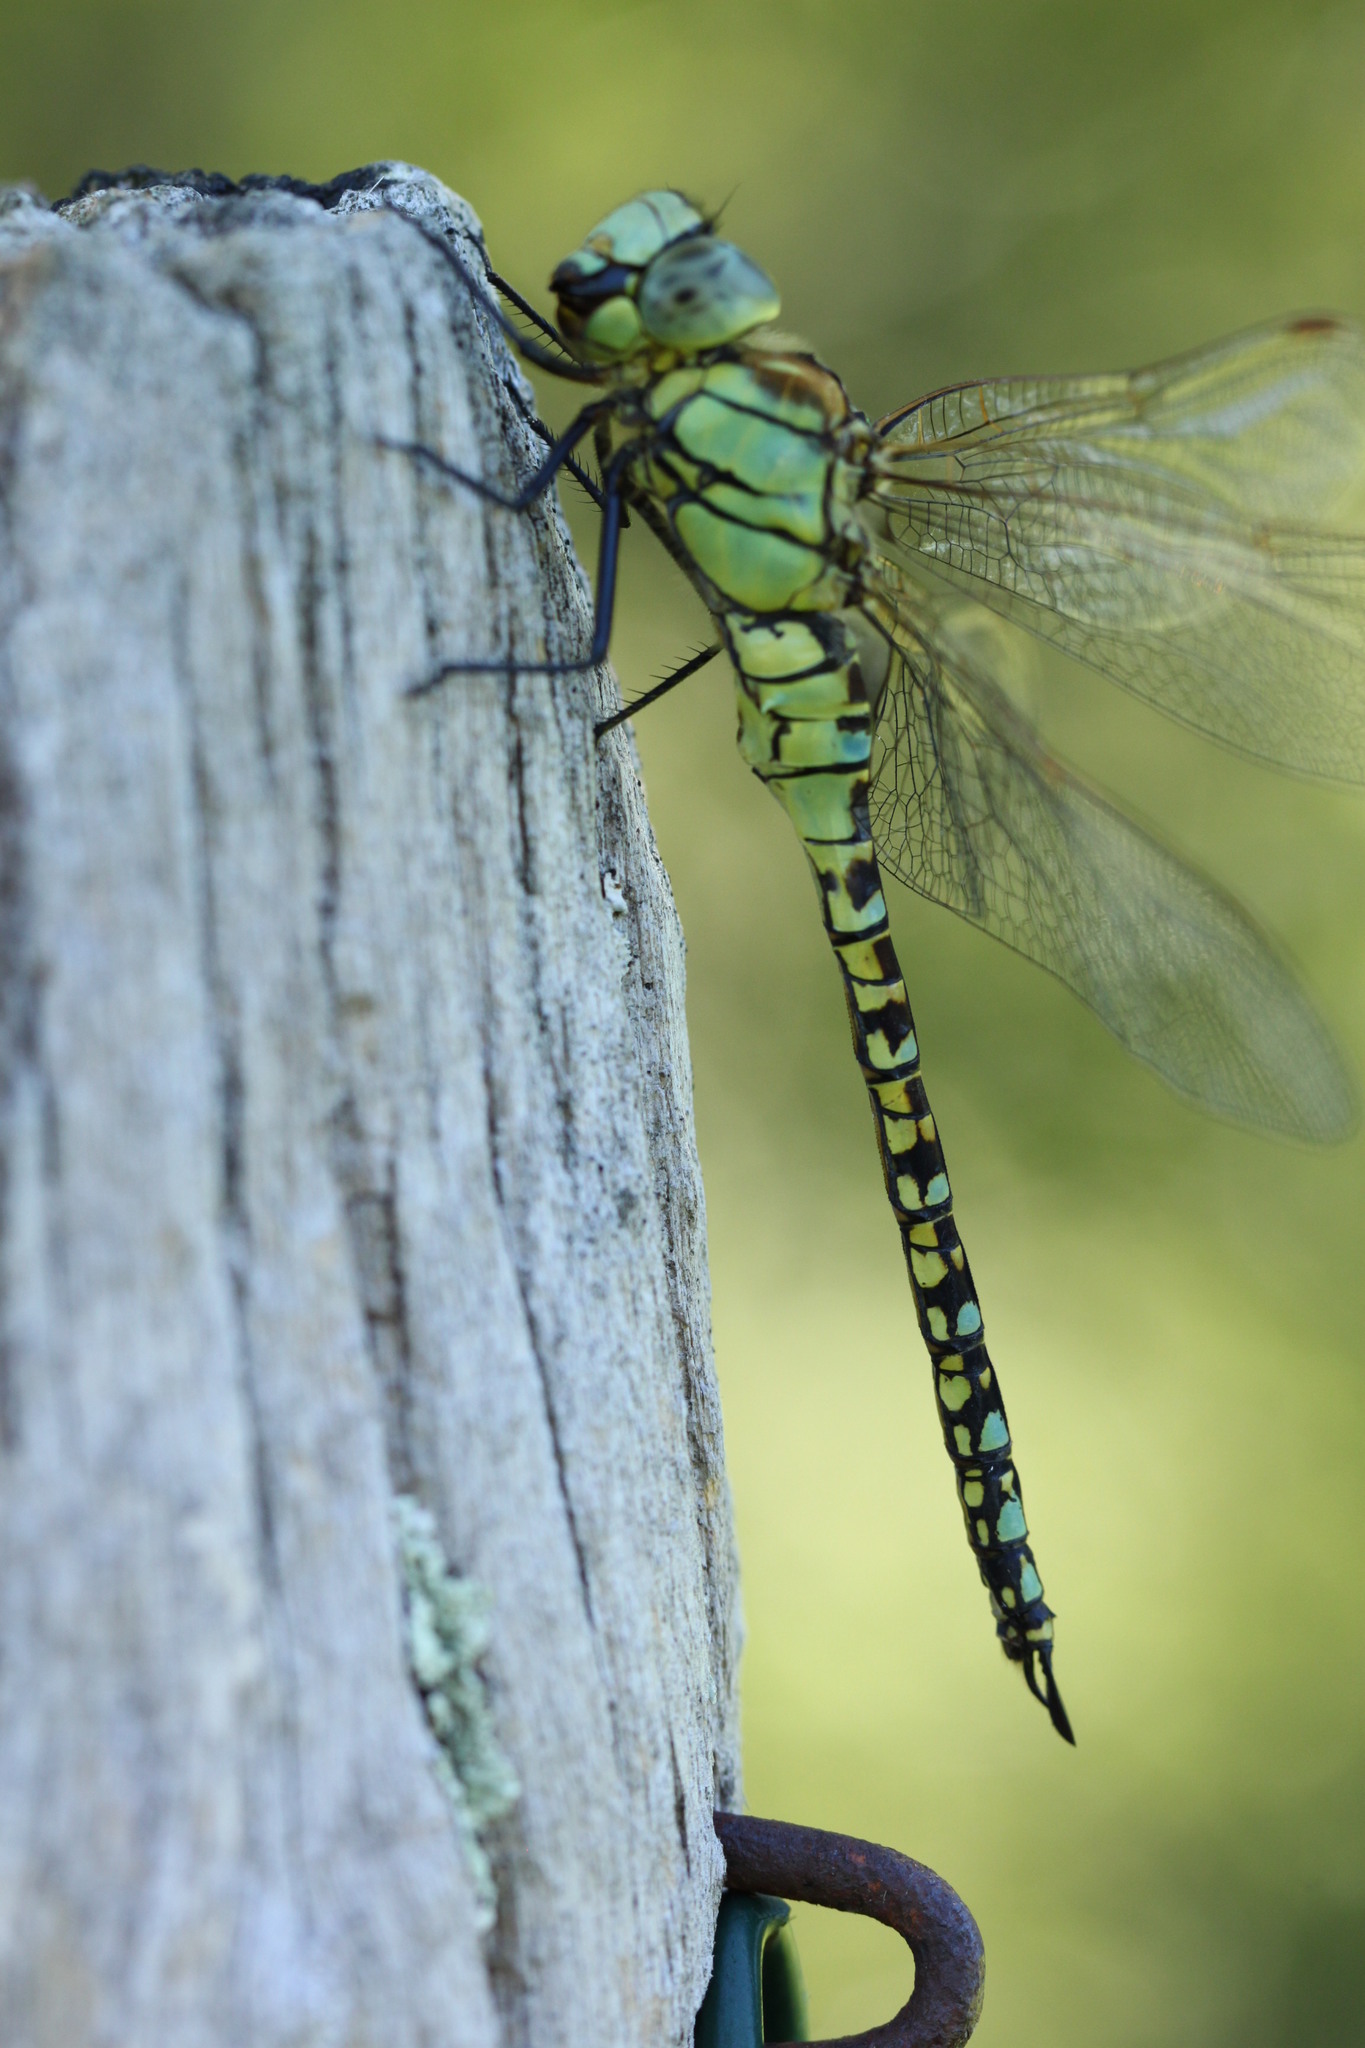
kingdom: Animalia
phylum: Arthropoda
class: Insecta
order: Odonata
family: Aeshnidae
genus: Aeshna
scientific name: Aeshna affinis
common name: Southern migrant hawker
